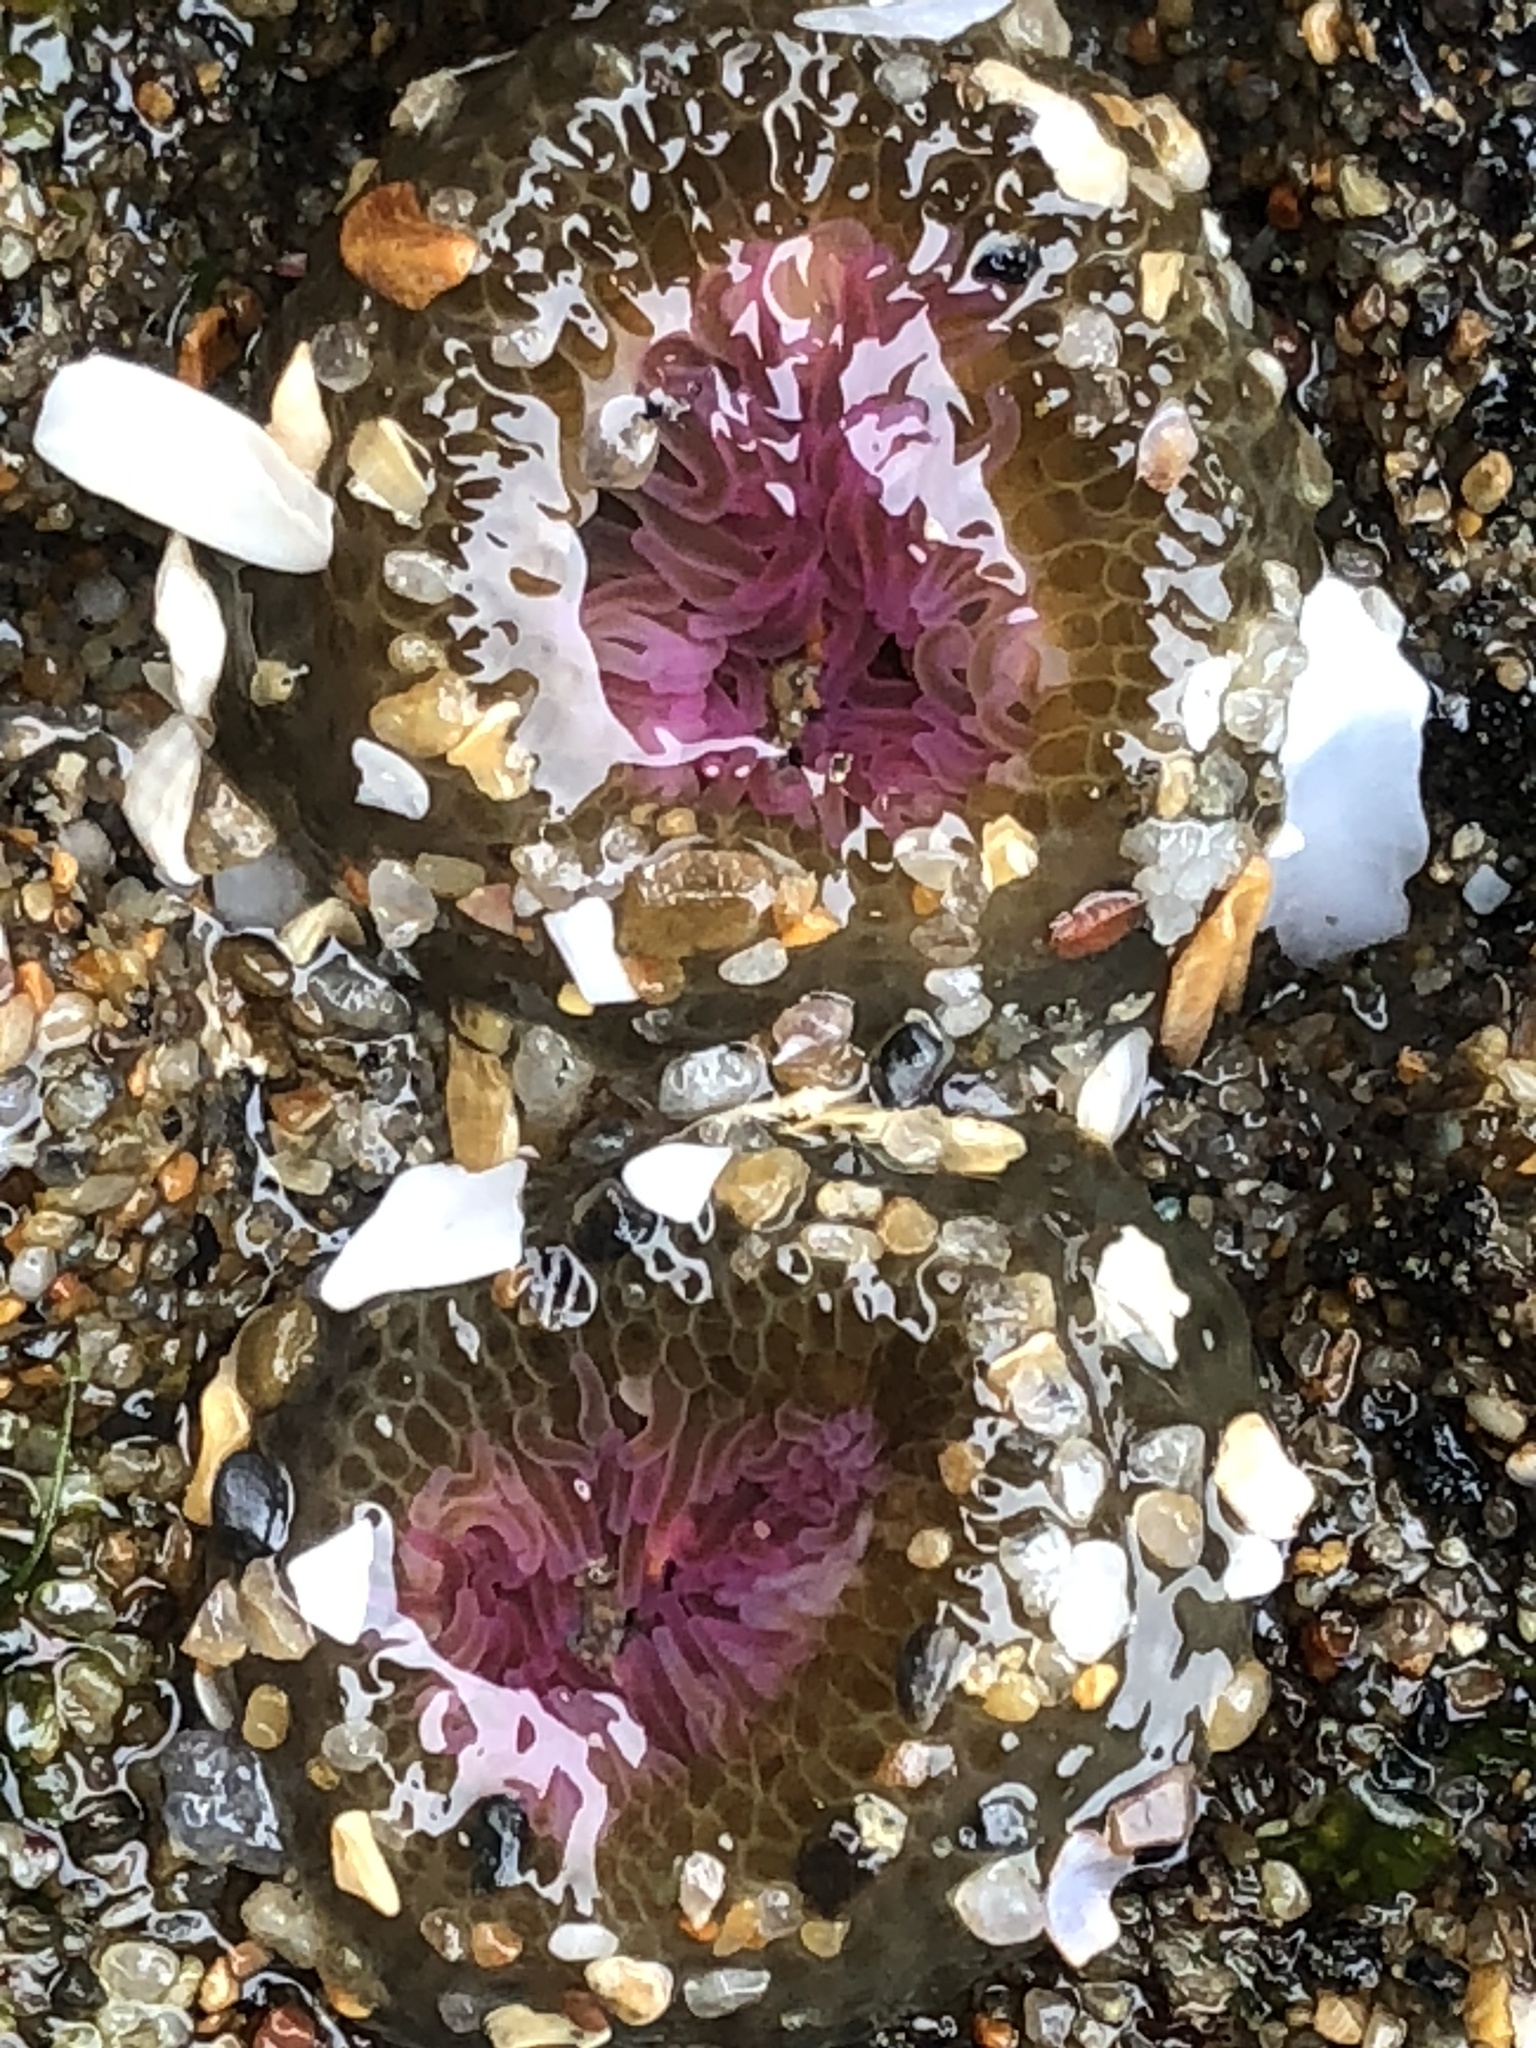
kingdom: Animalia
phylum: Cnidaria
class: Anthozoa
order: Actiniaria
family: Actiniidae
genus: Anthopleura
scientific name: Anthopleura artemisia
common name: Buried sea anemone
